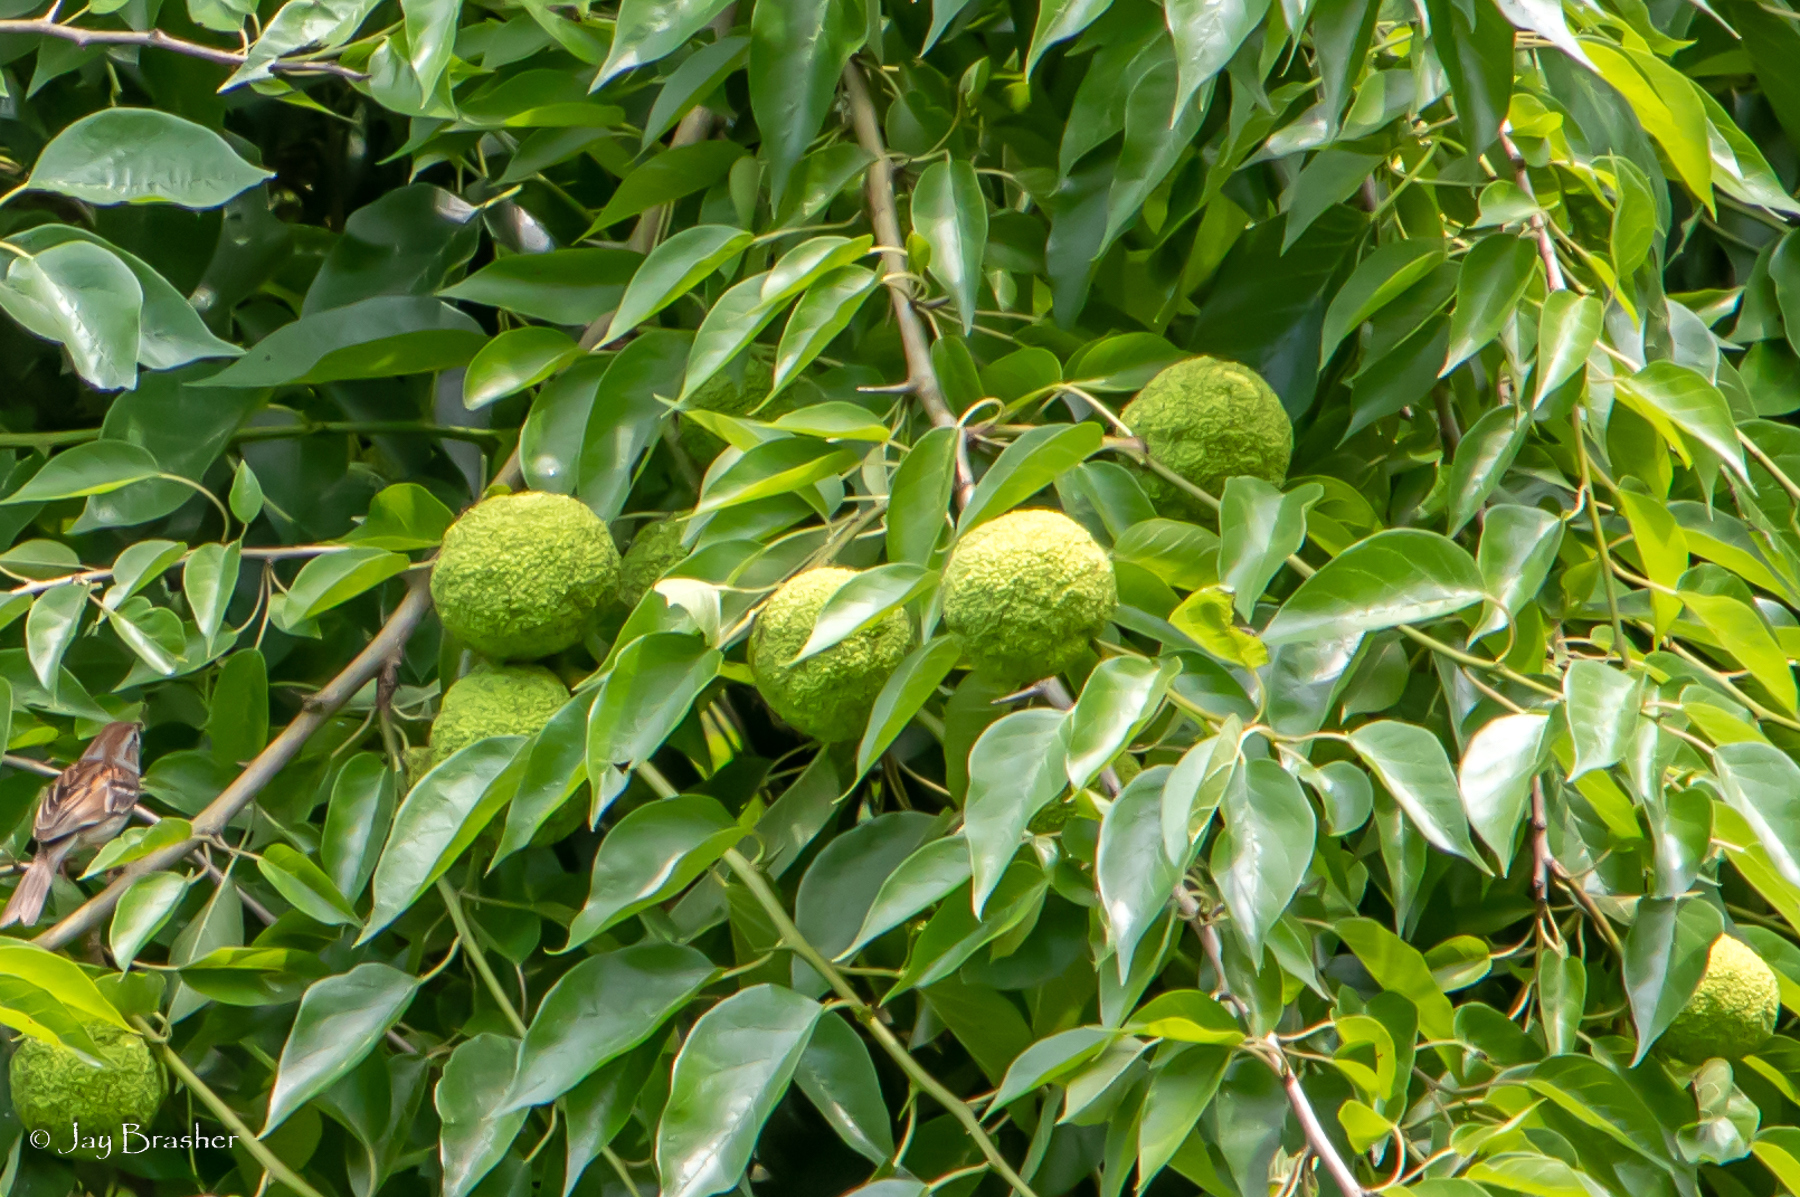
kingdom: Plantae
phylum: Tracheophyta
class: Magnoliopsida
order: Rosales
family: Moraceae
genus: Maclura
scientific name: Maclura pomifera
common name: Osage-orange
